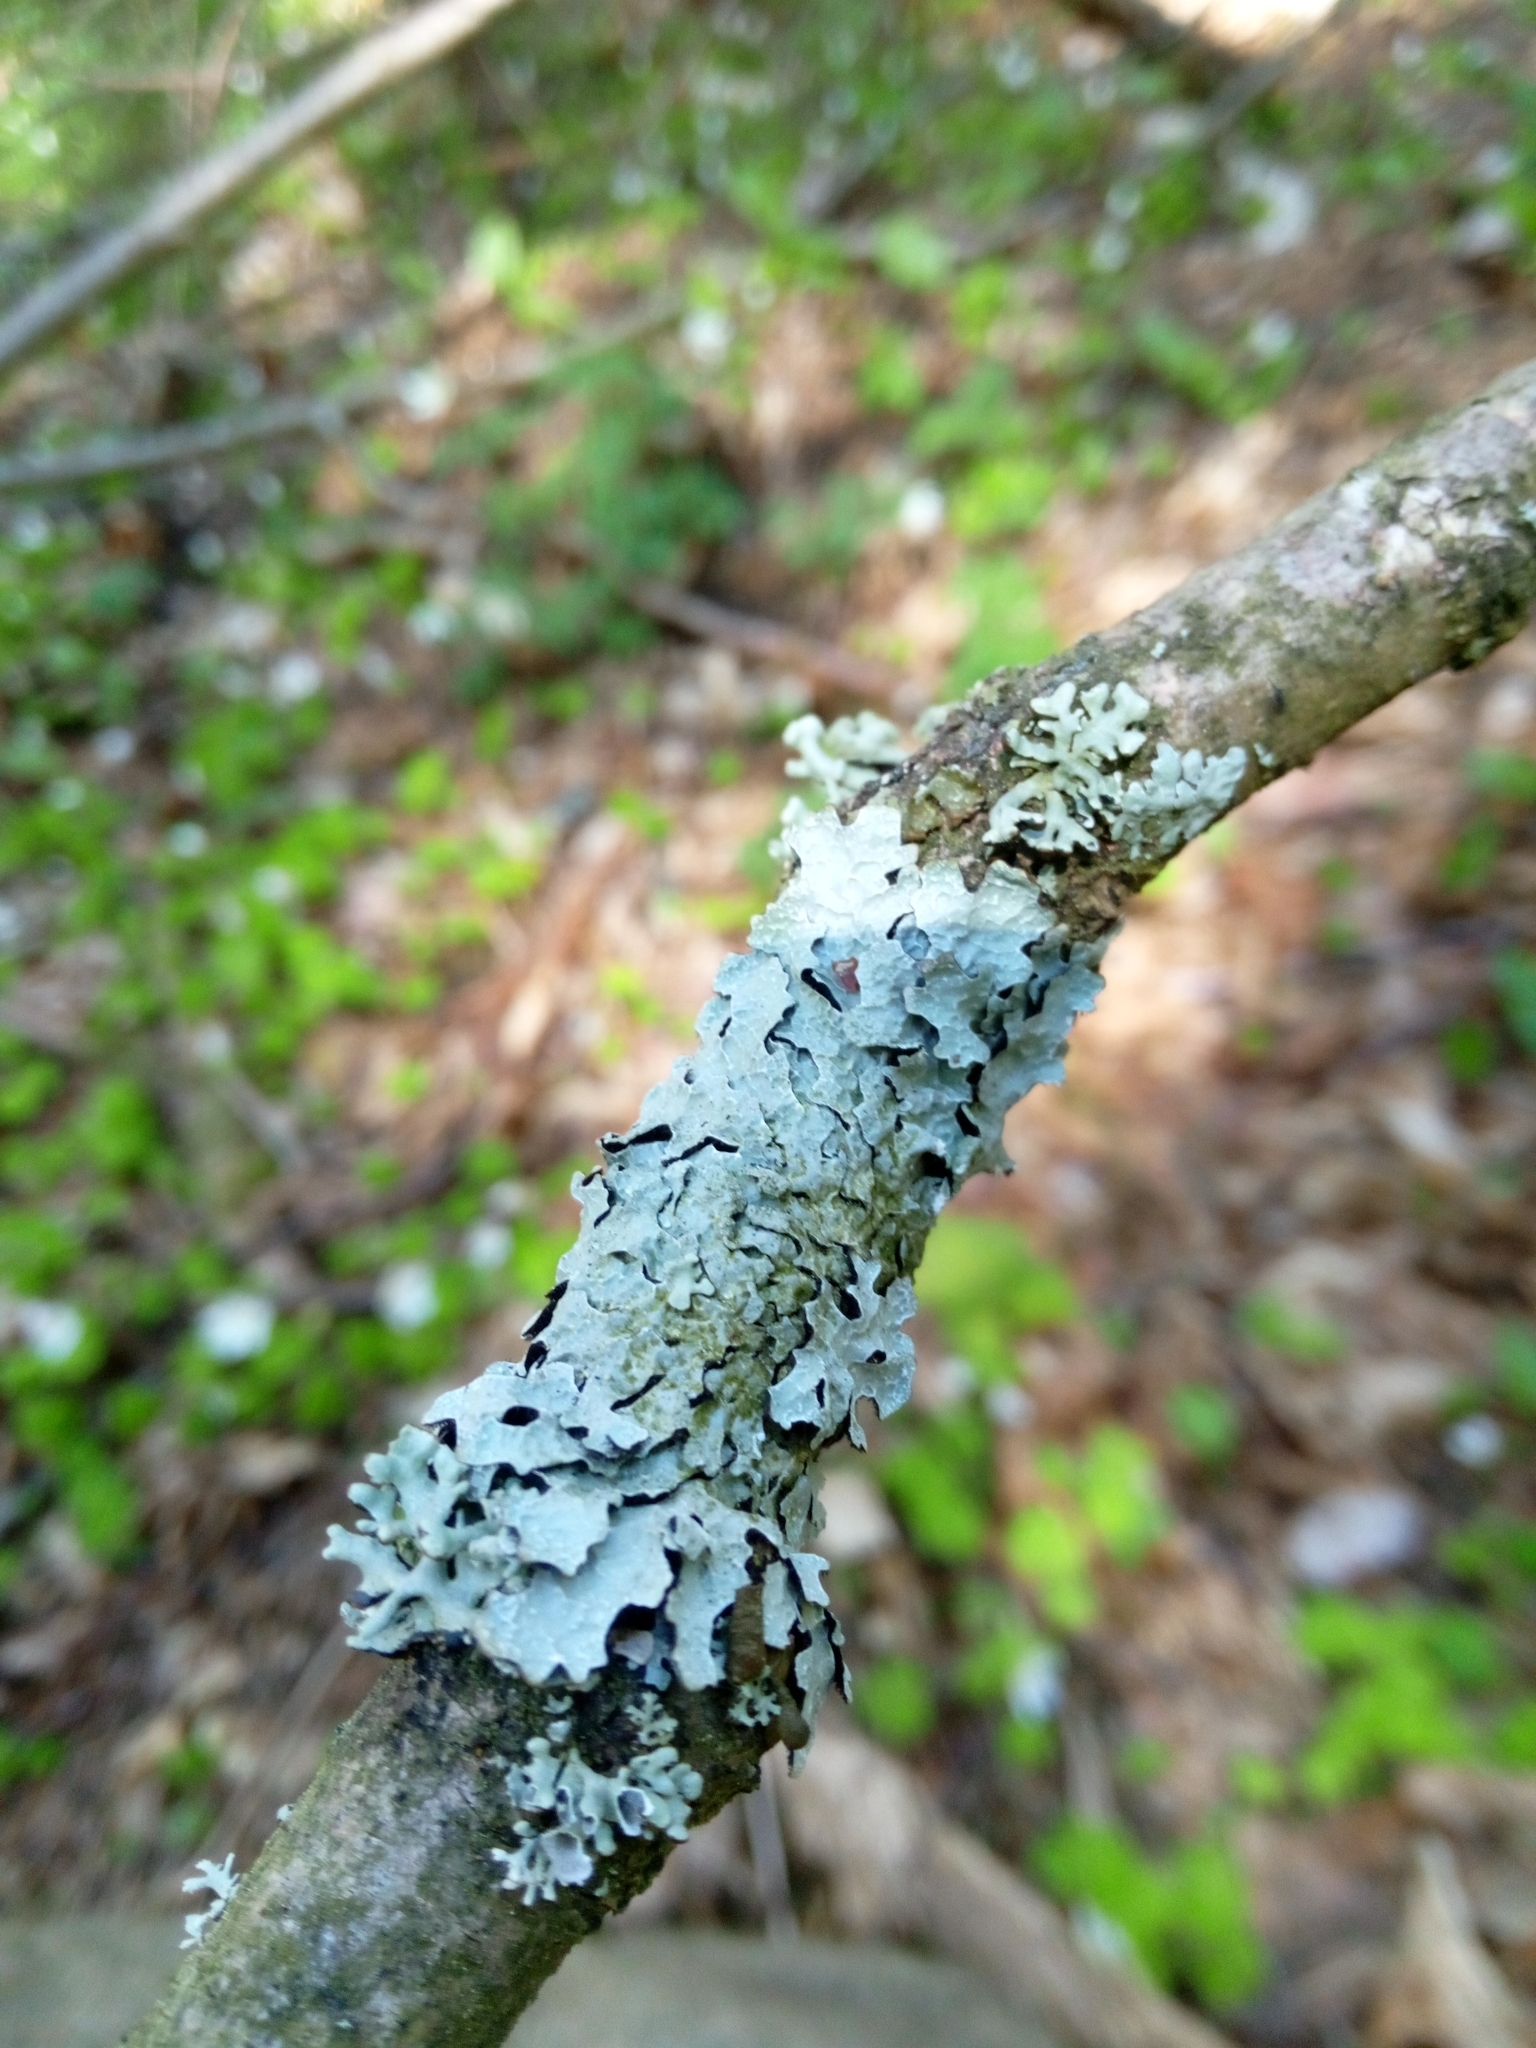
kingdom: Fungi
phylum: Ascomycota
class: Lecanoromycetes
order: Lecanorales
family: Parmeliaceae
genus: Parmelia
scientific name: Parmelia sulcata
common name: Netted shield lichen
